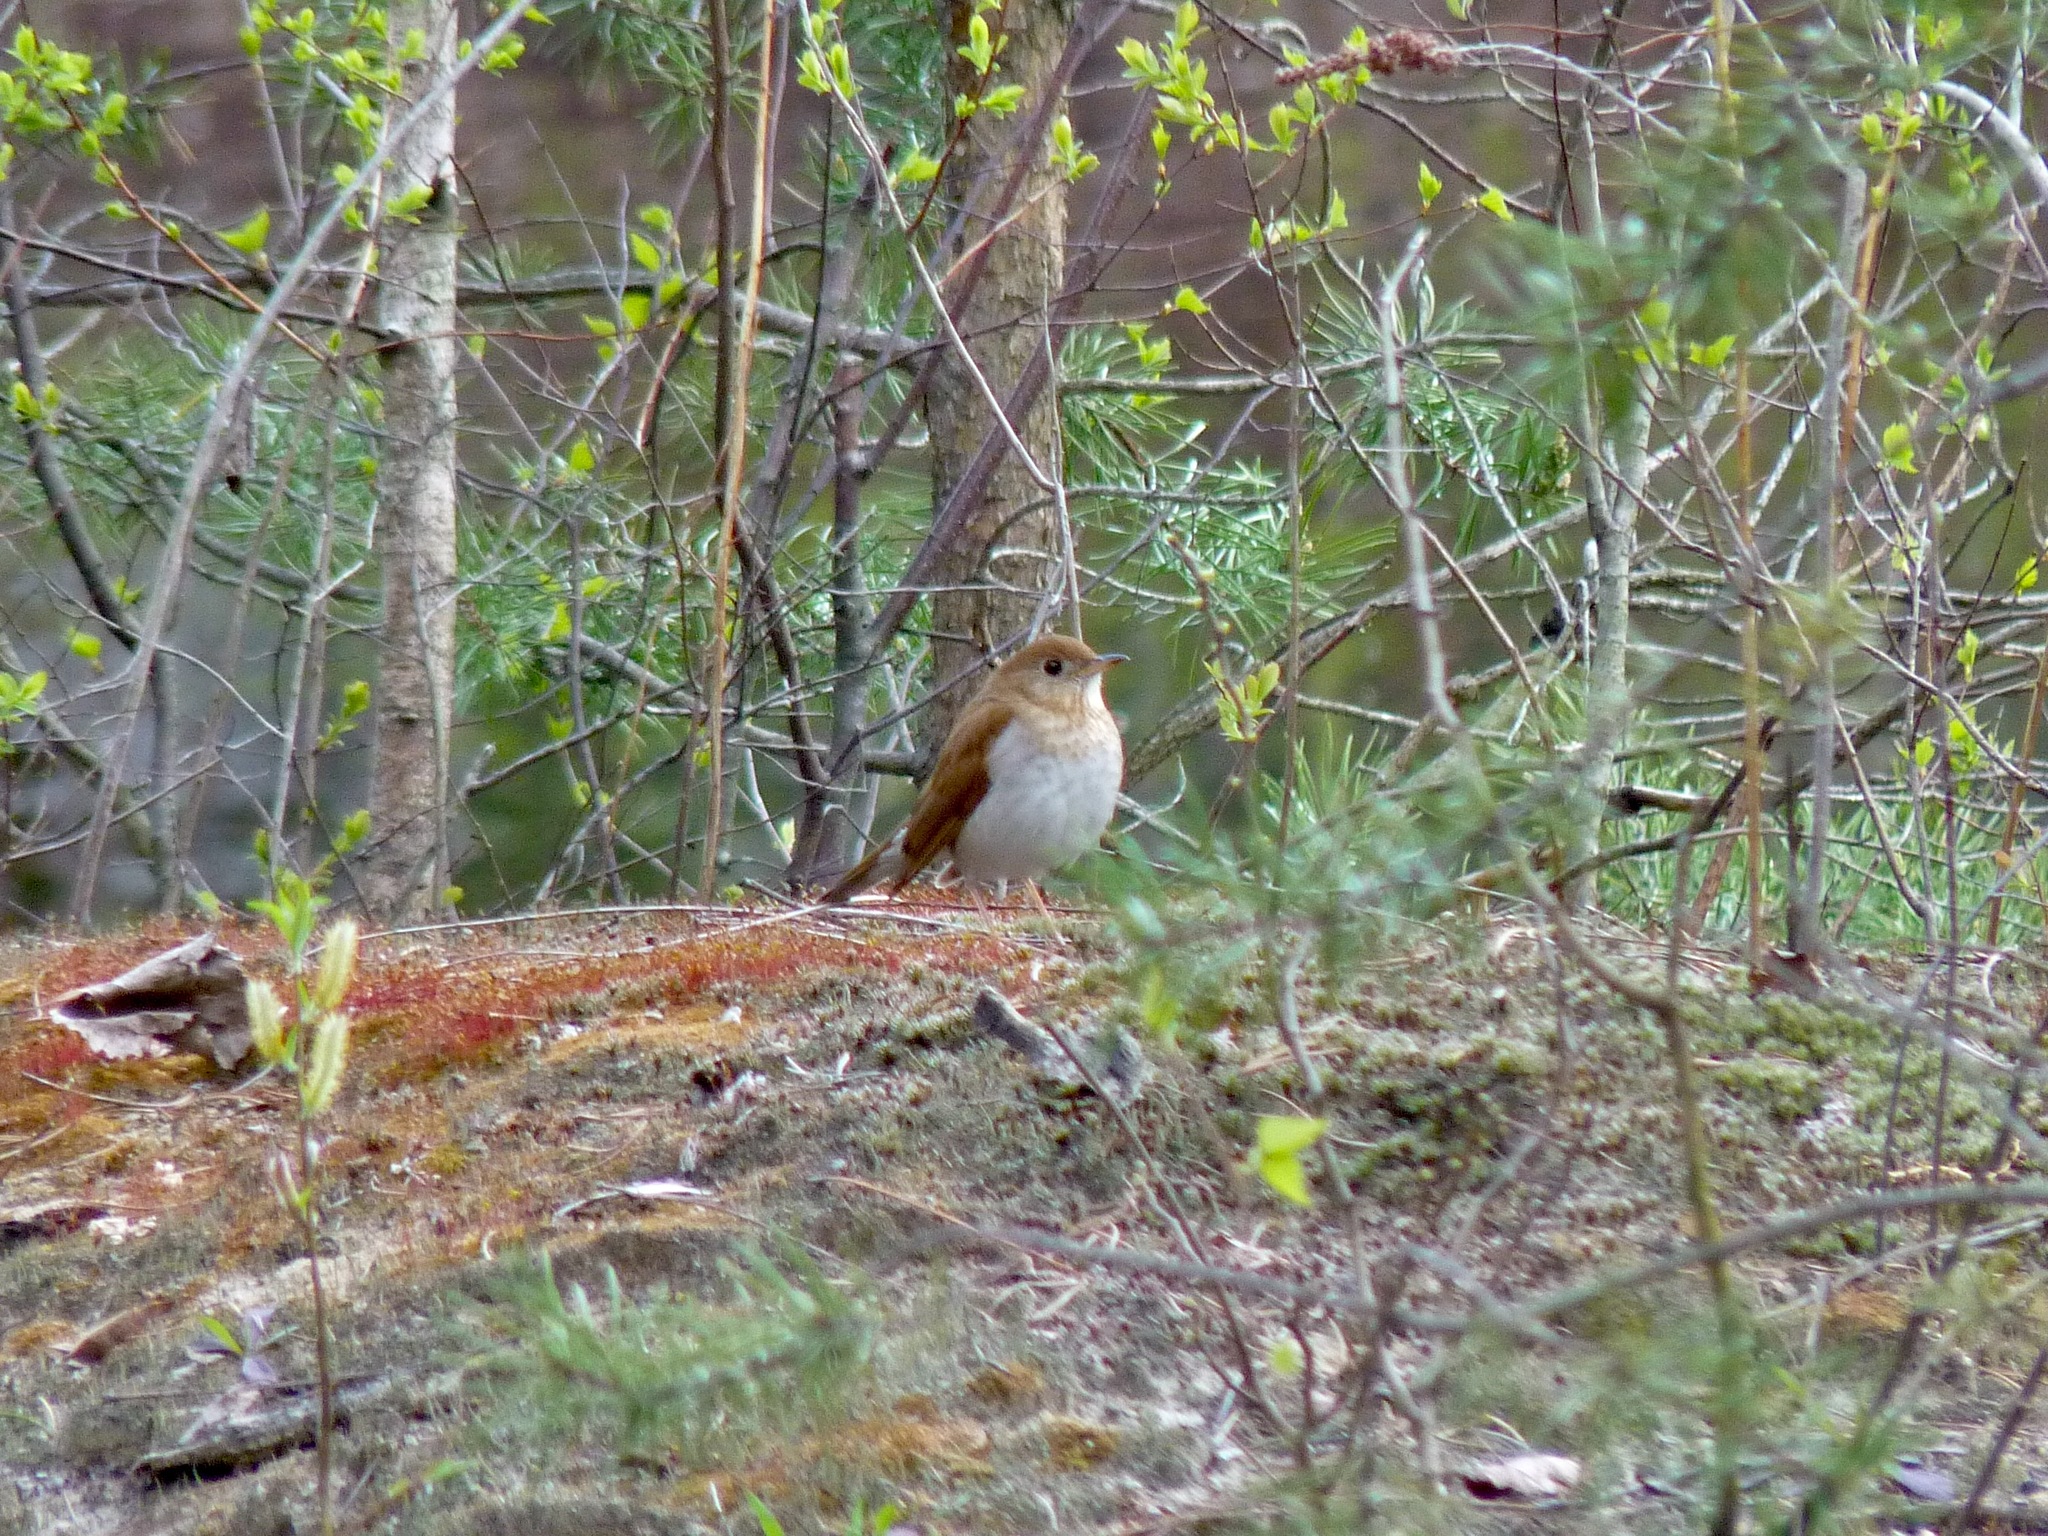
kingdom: Animalia
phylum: Chordata
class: Aves
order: Passeriformes
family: Turdidae
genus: Catharus
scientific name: Catharus fuscescens
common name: Veery
